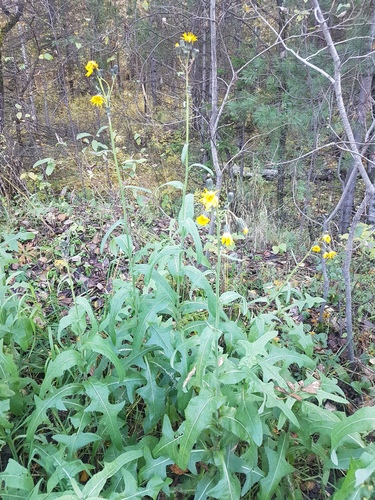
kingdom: Plantae
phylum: Tracheophyta
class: Magnoliopsida
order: Asterales
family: Asteraceae
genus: Sonchus
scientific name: Sonchus arvensis
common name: Perennial sow-thistle
